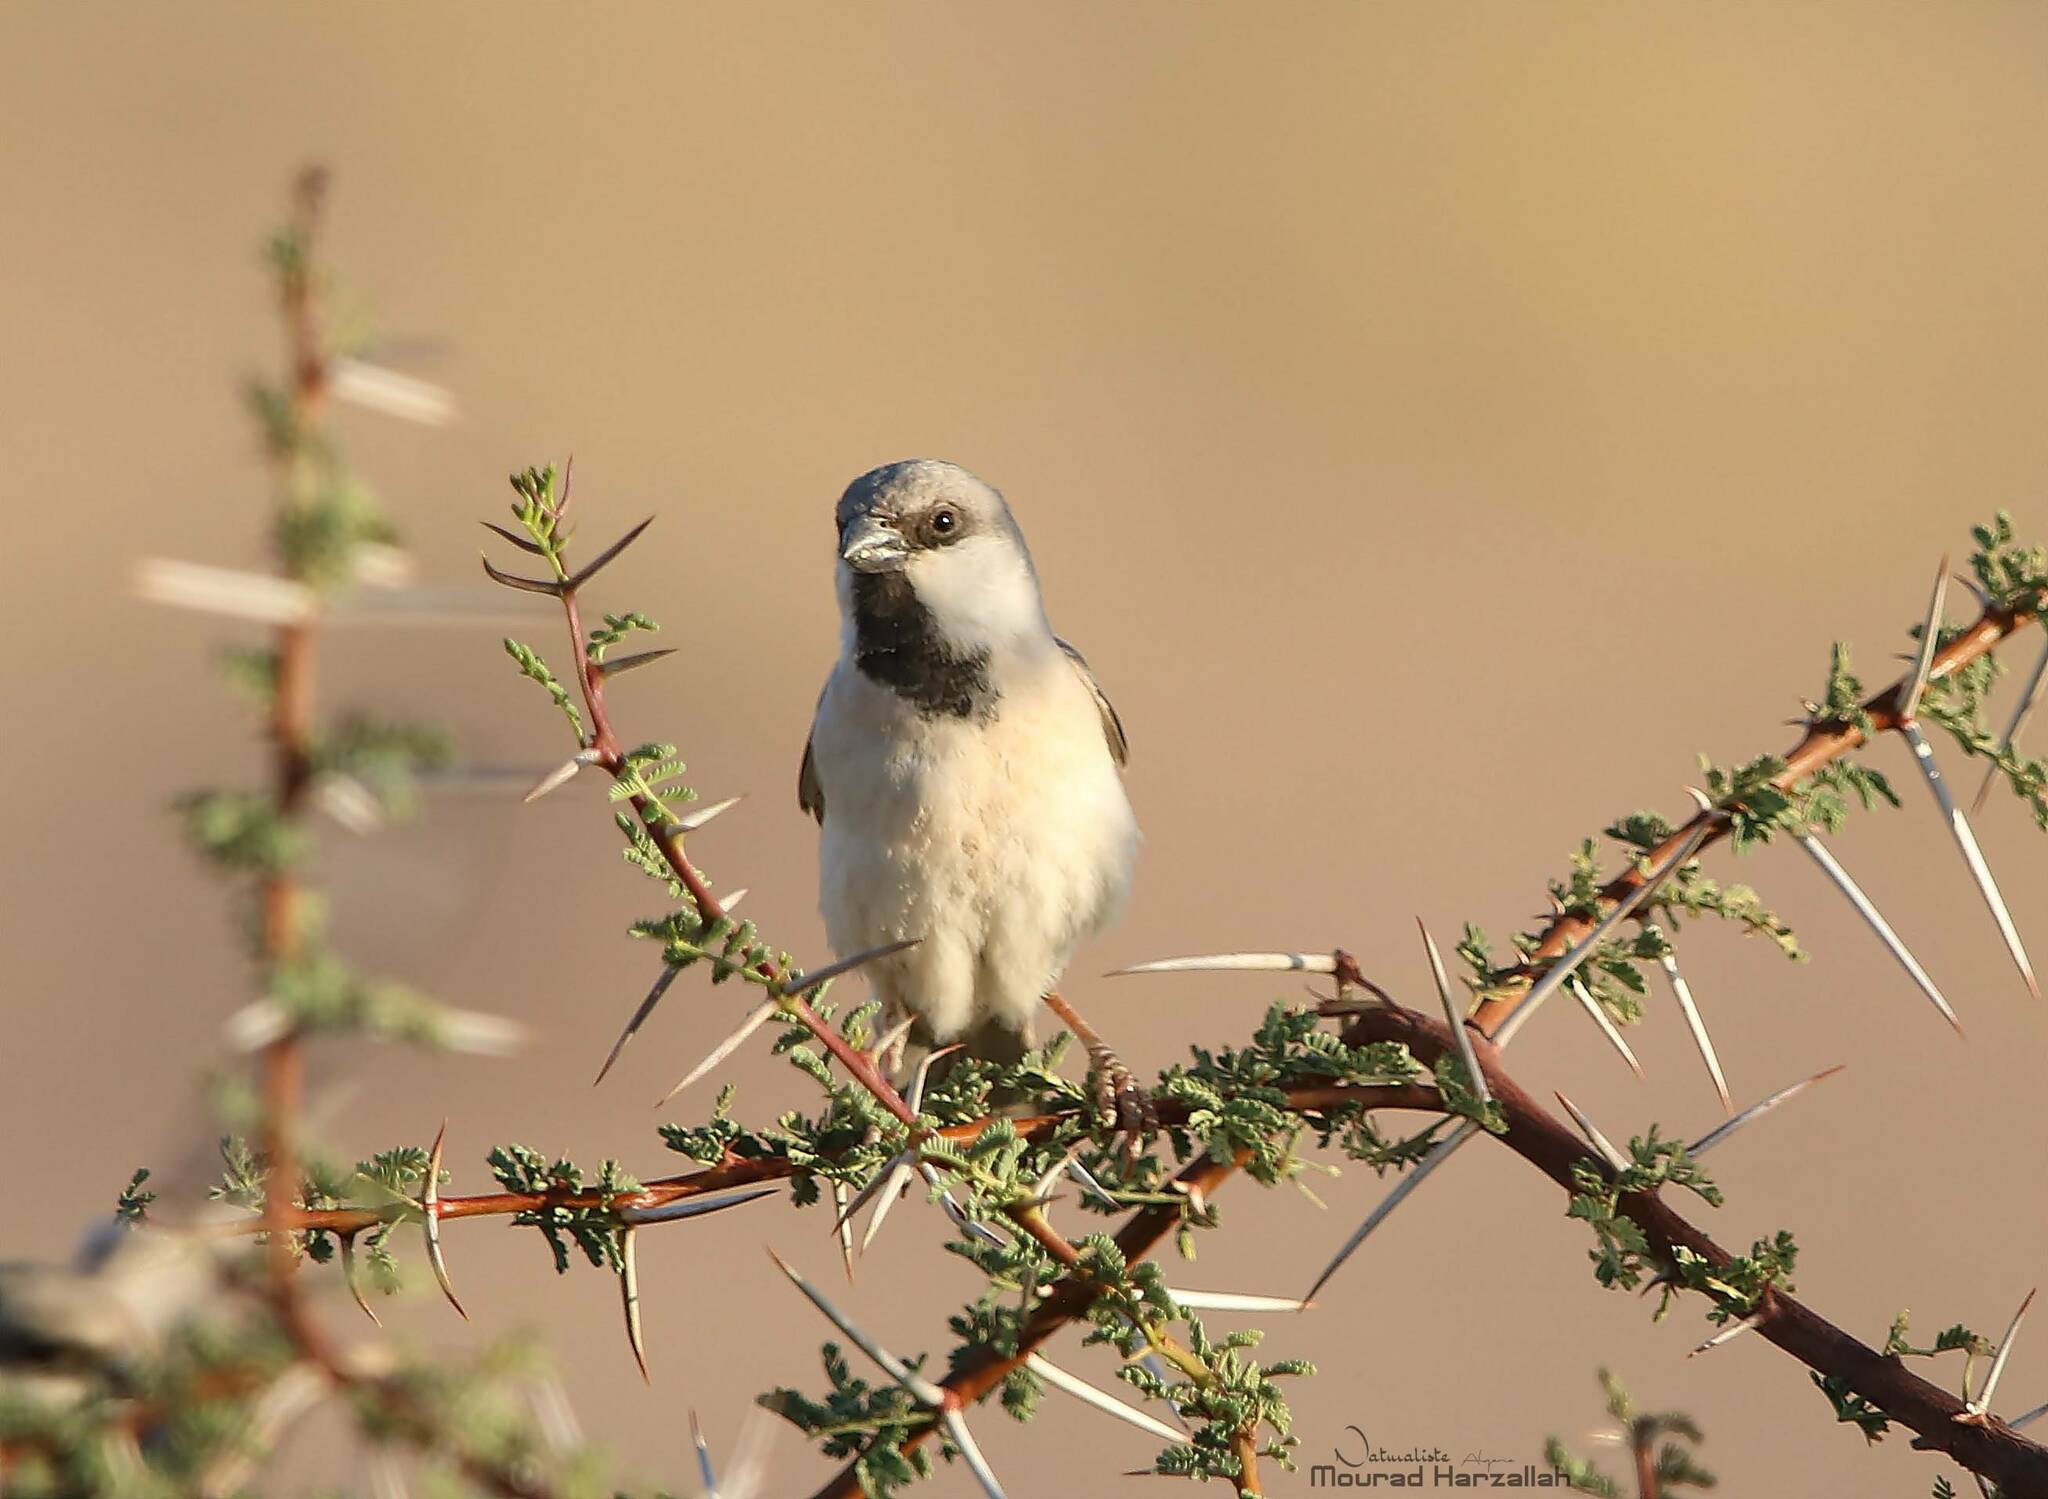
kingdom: Animalia
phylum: Chordata
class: Aves
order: Passeriformes
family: Passeridae
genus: Passer
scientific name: Passer simplex
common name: Desert sparrow
